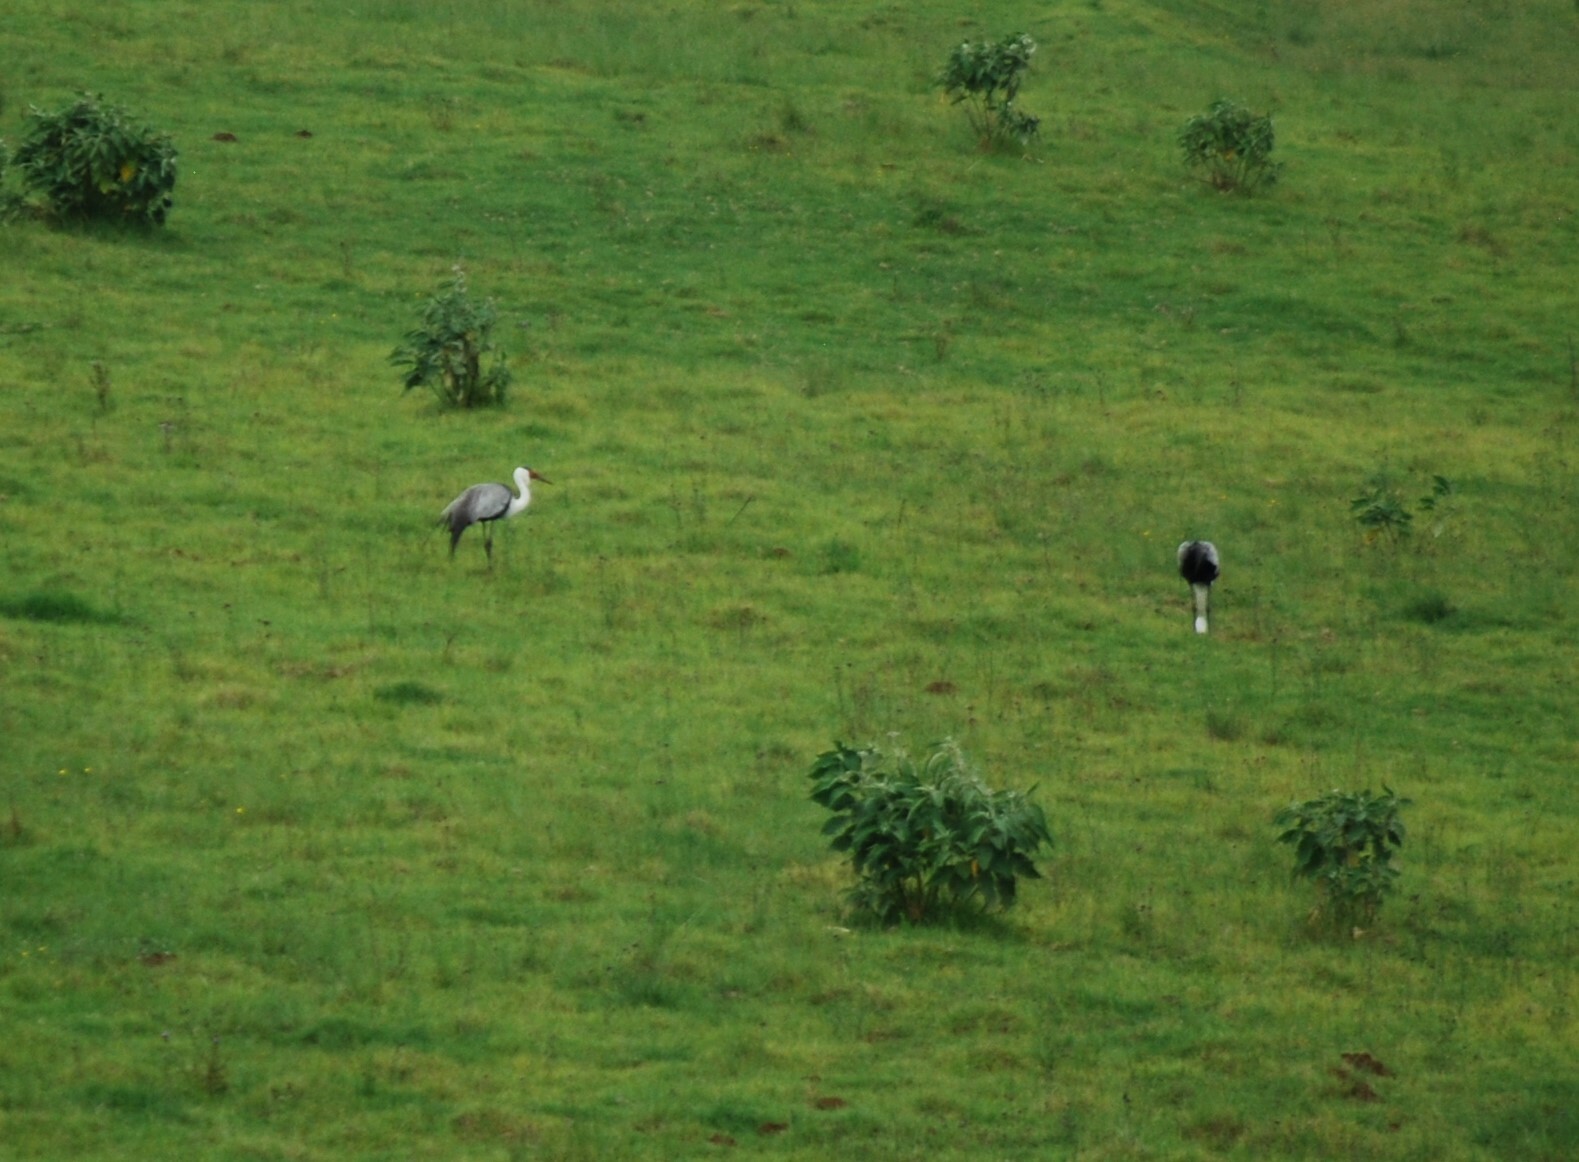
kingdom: Animalia
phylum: Chordata
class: Aves
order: Gruiformes
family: Gruidae
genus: Bugeranus
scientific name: Bugeranus carunculatus
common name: Wattled crane
